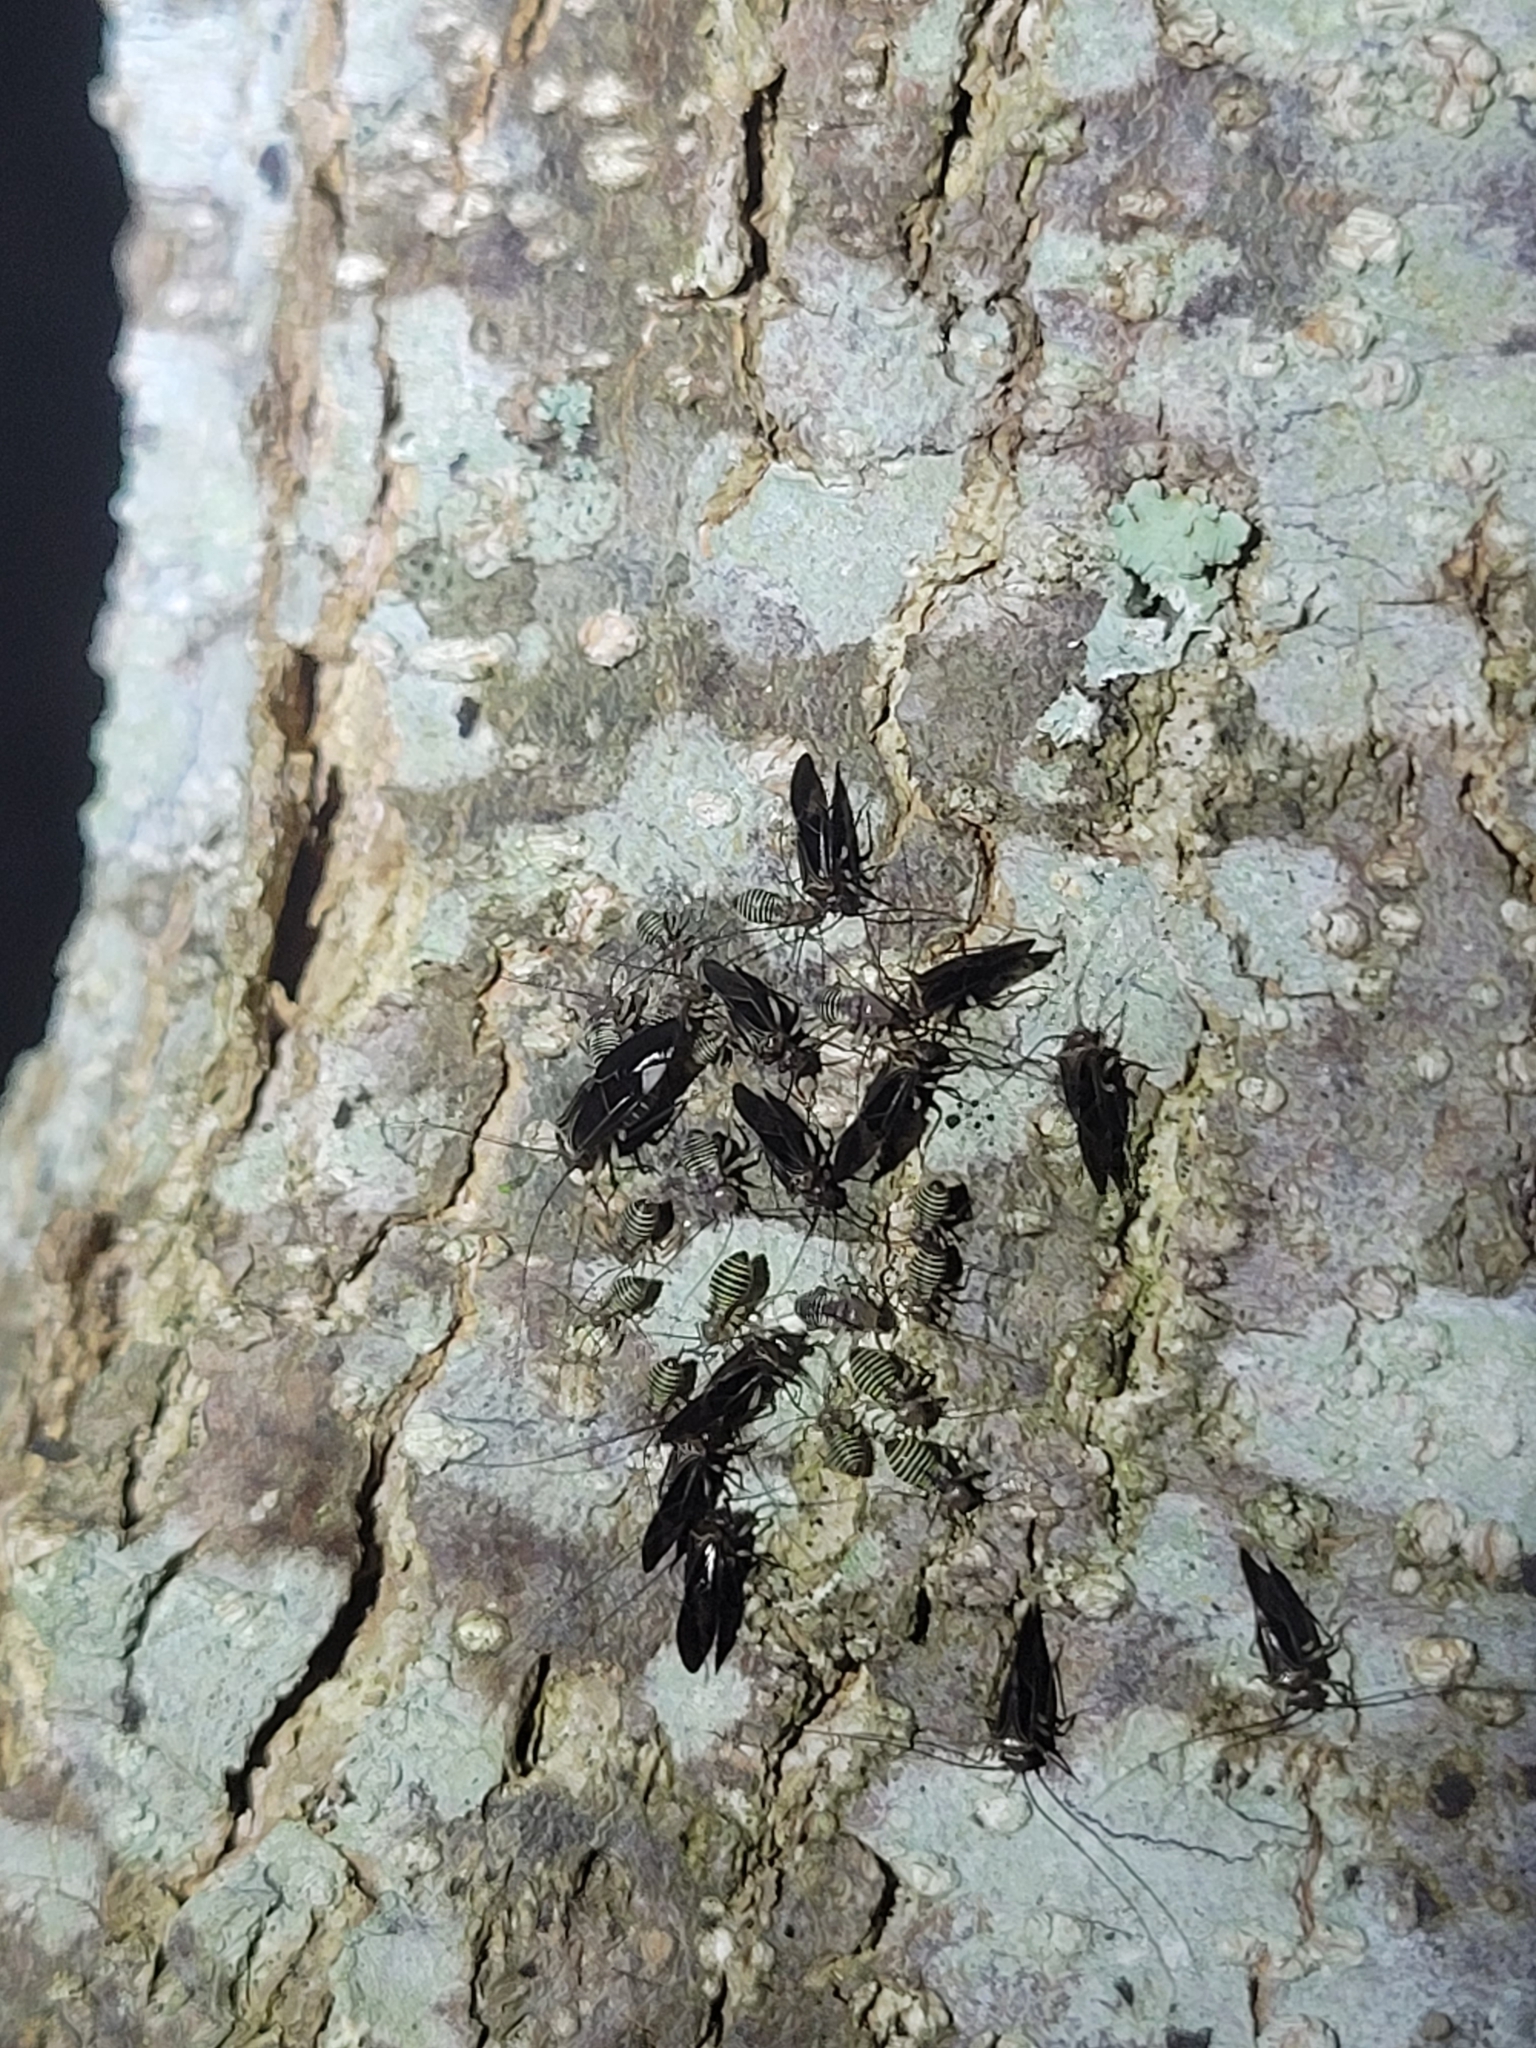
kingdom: Animalia
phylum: Arthropoda
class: Insecta
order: Psocodea
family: Psocidae
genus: Cerastipsocus
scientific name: Cerastipsocus venosus
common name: Tree cattle
